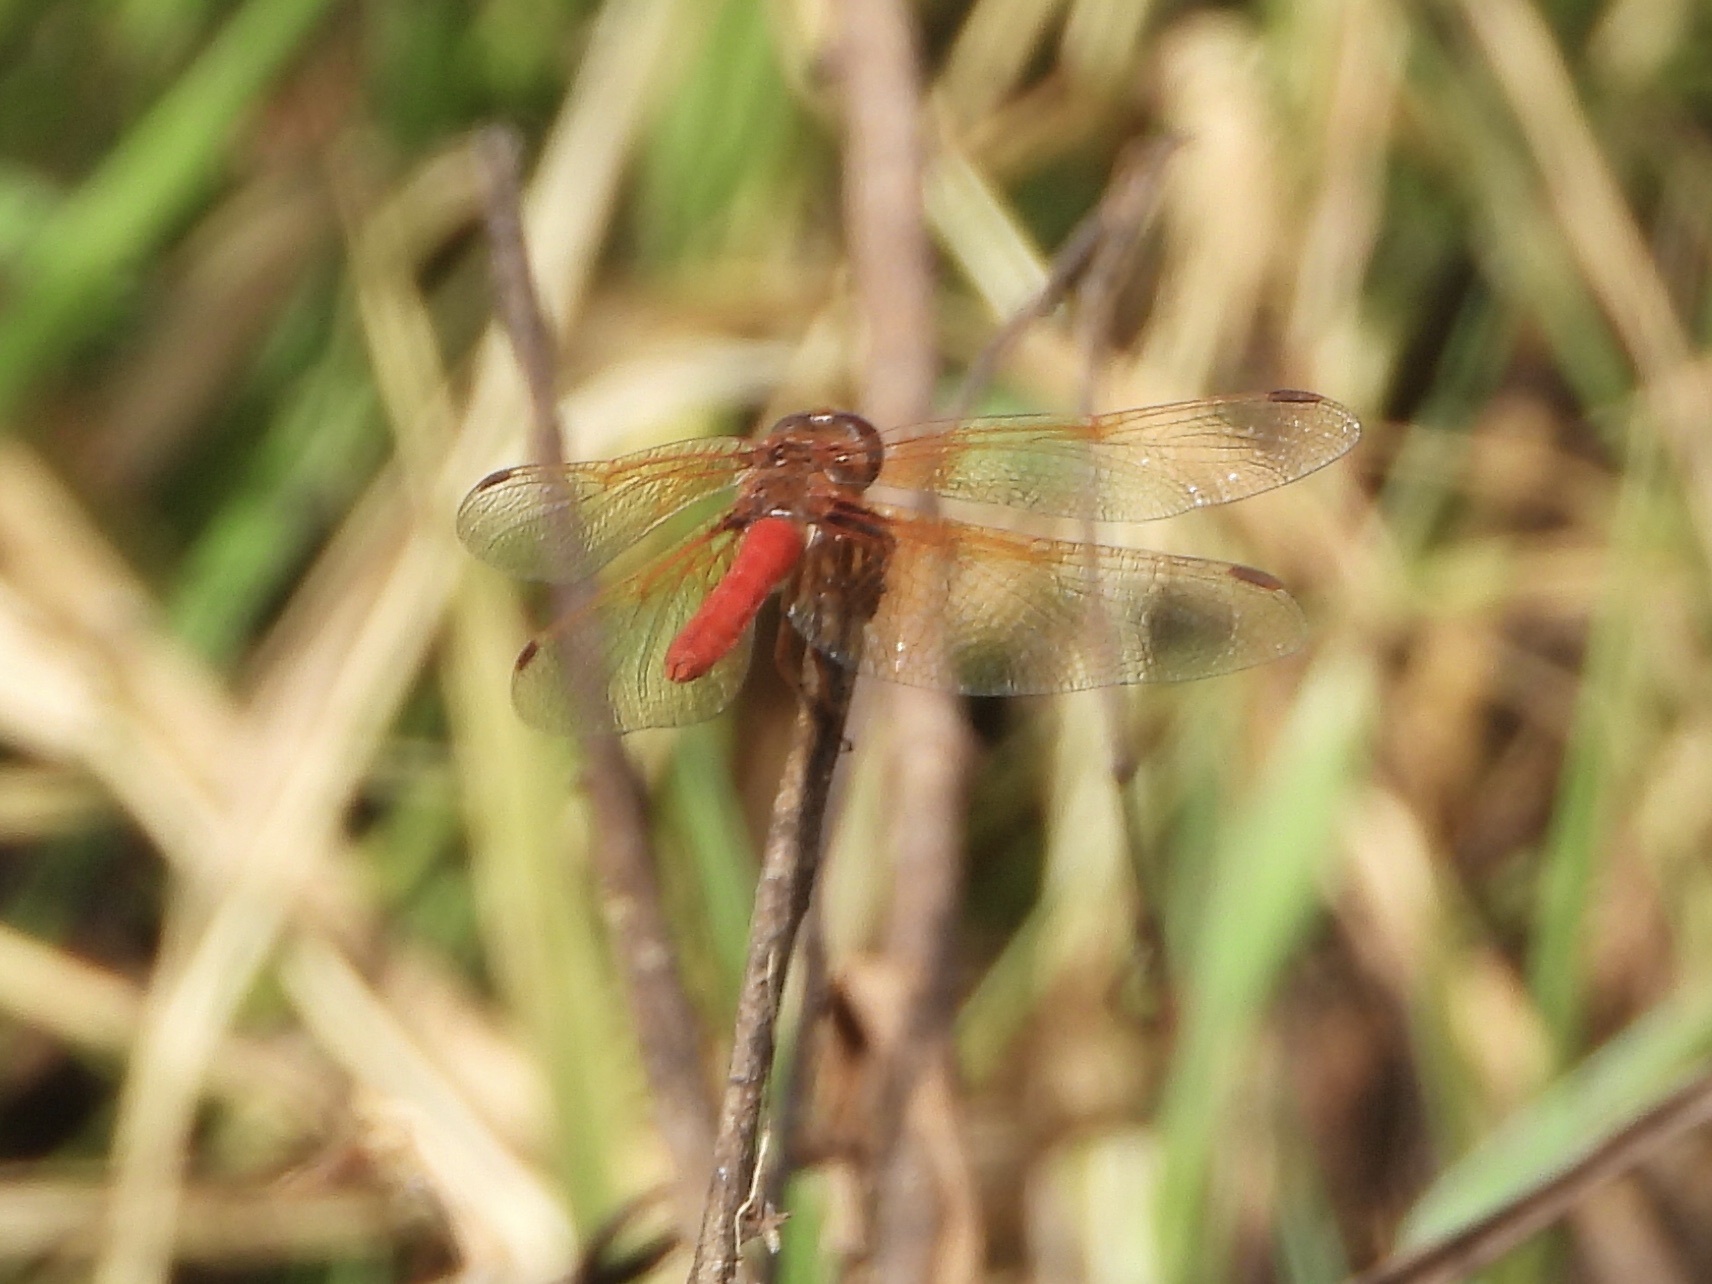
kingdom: Animalia
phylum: Arthropoda
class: Insecta
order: Odonata
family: Libellulidae
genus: Sympetrum
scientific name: Sympetrum illotum
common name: Cardinal meadowhawk
